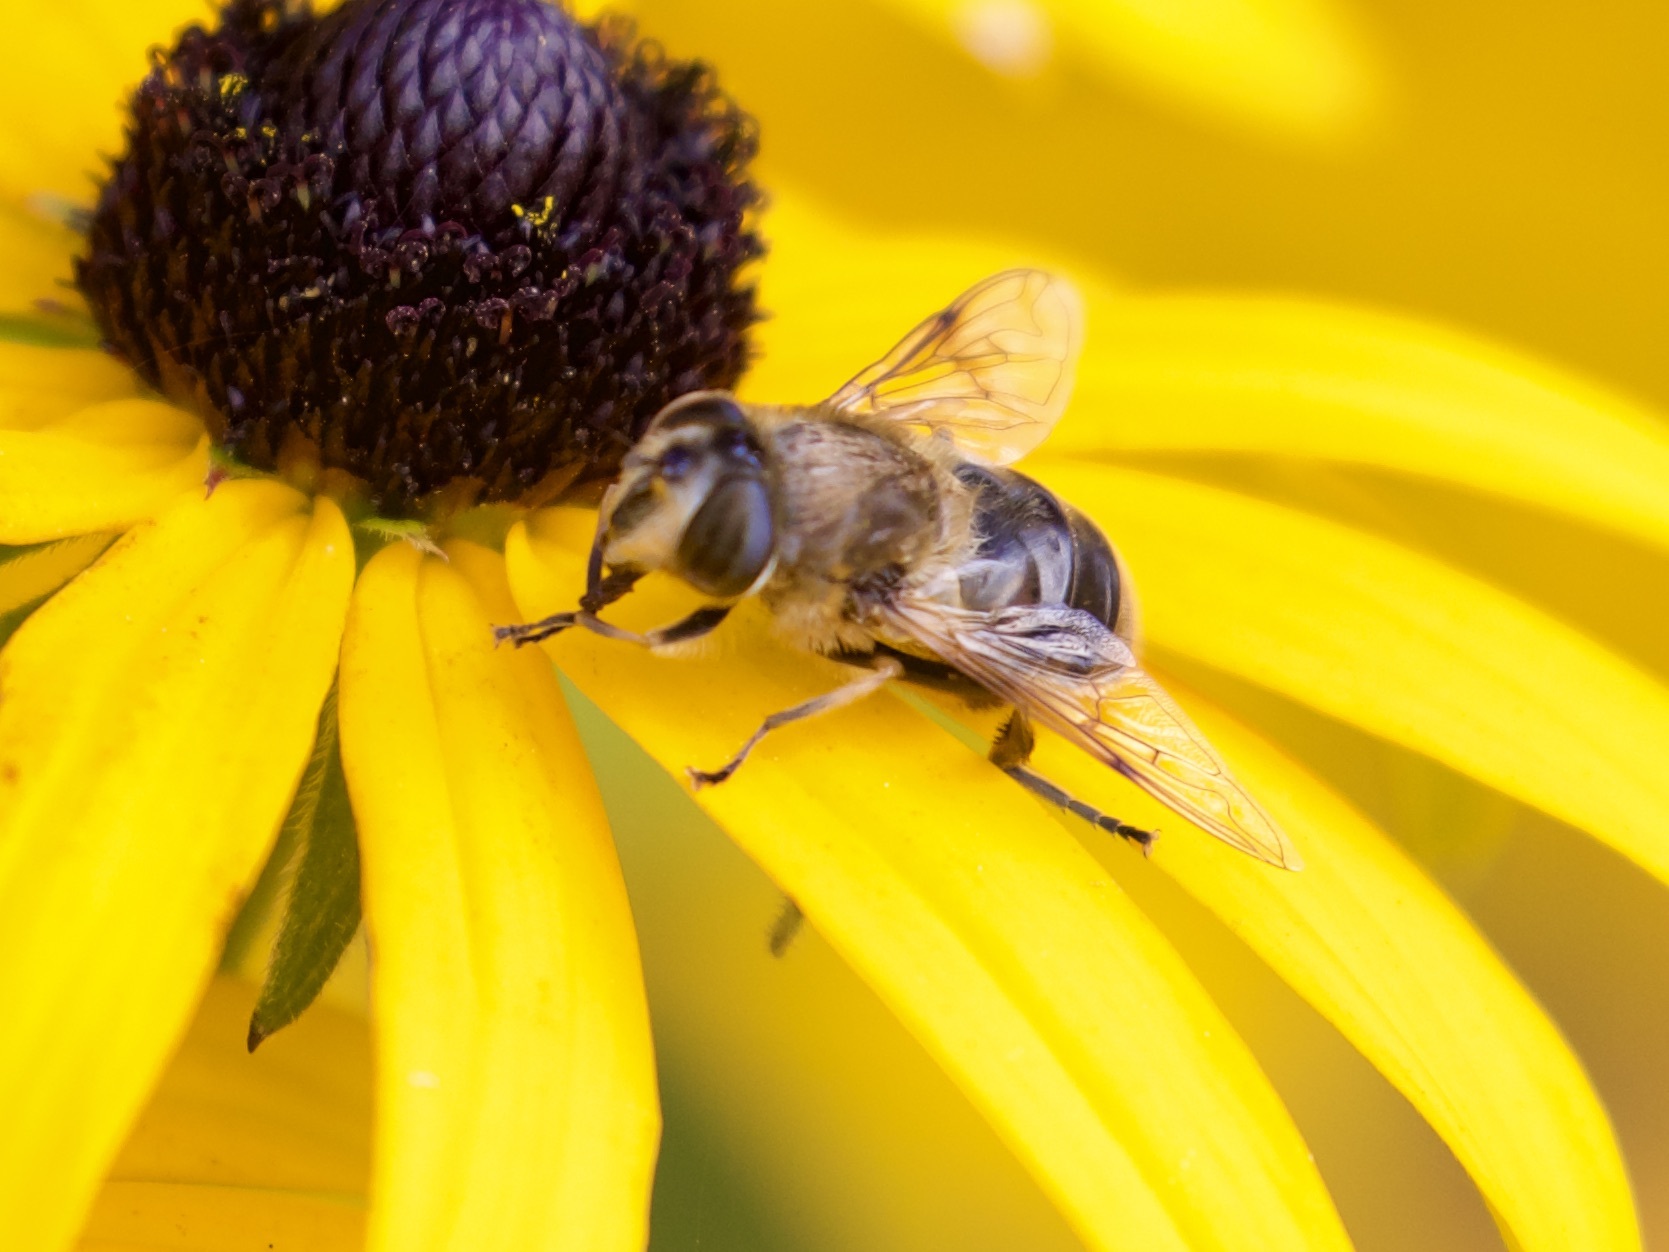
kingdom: Animalia
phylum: Arthropoda
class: Insecta
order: Diptera
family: Syrphidae
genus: Eristalis
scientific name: Eristalis tenax
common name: Drone fly
